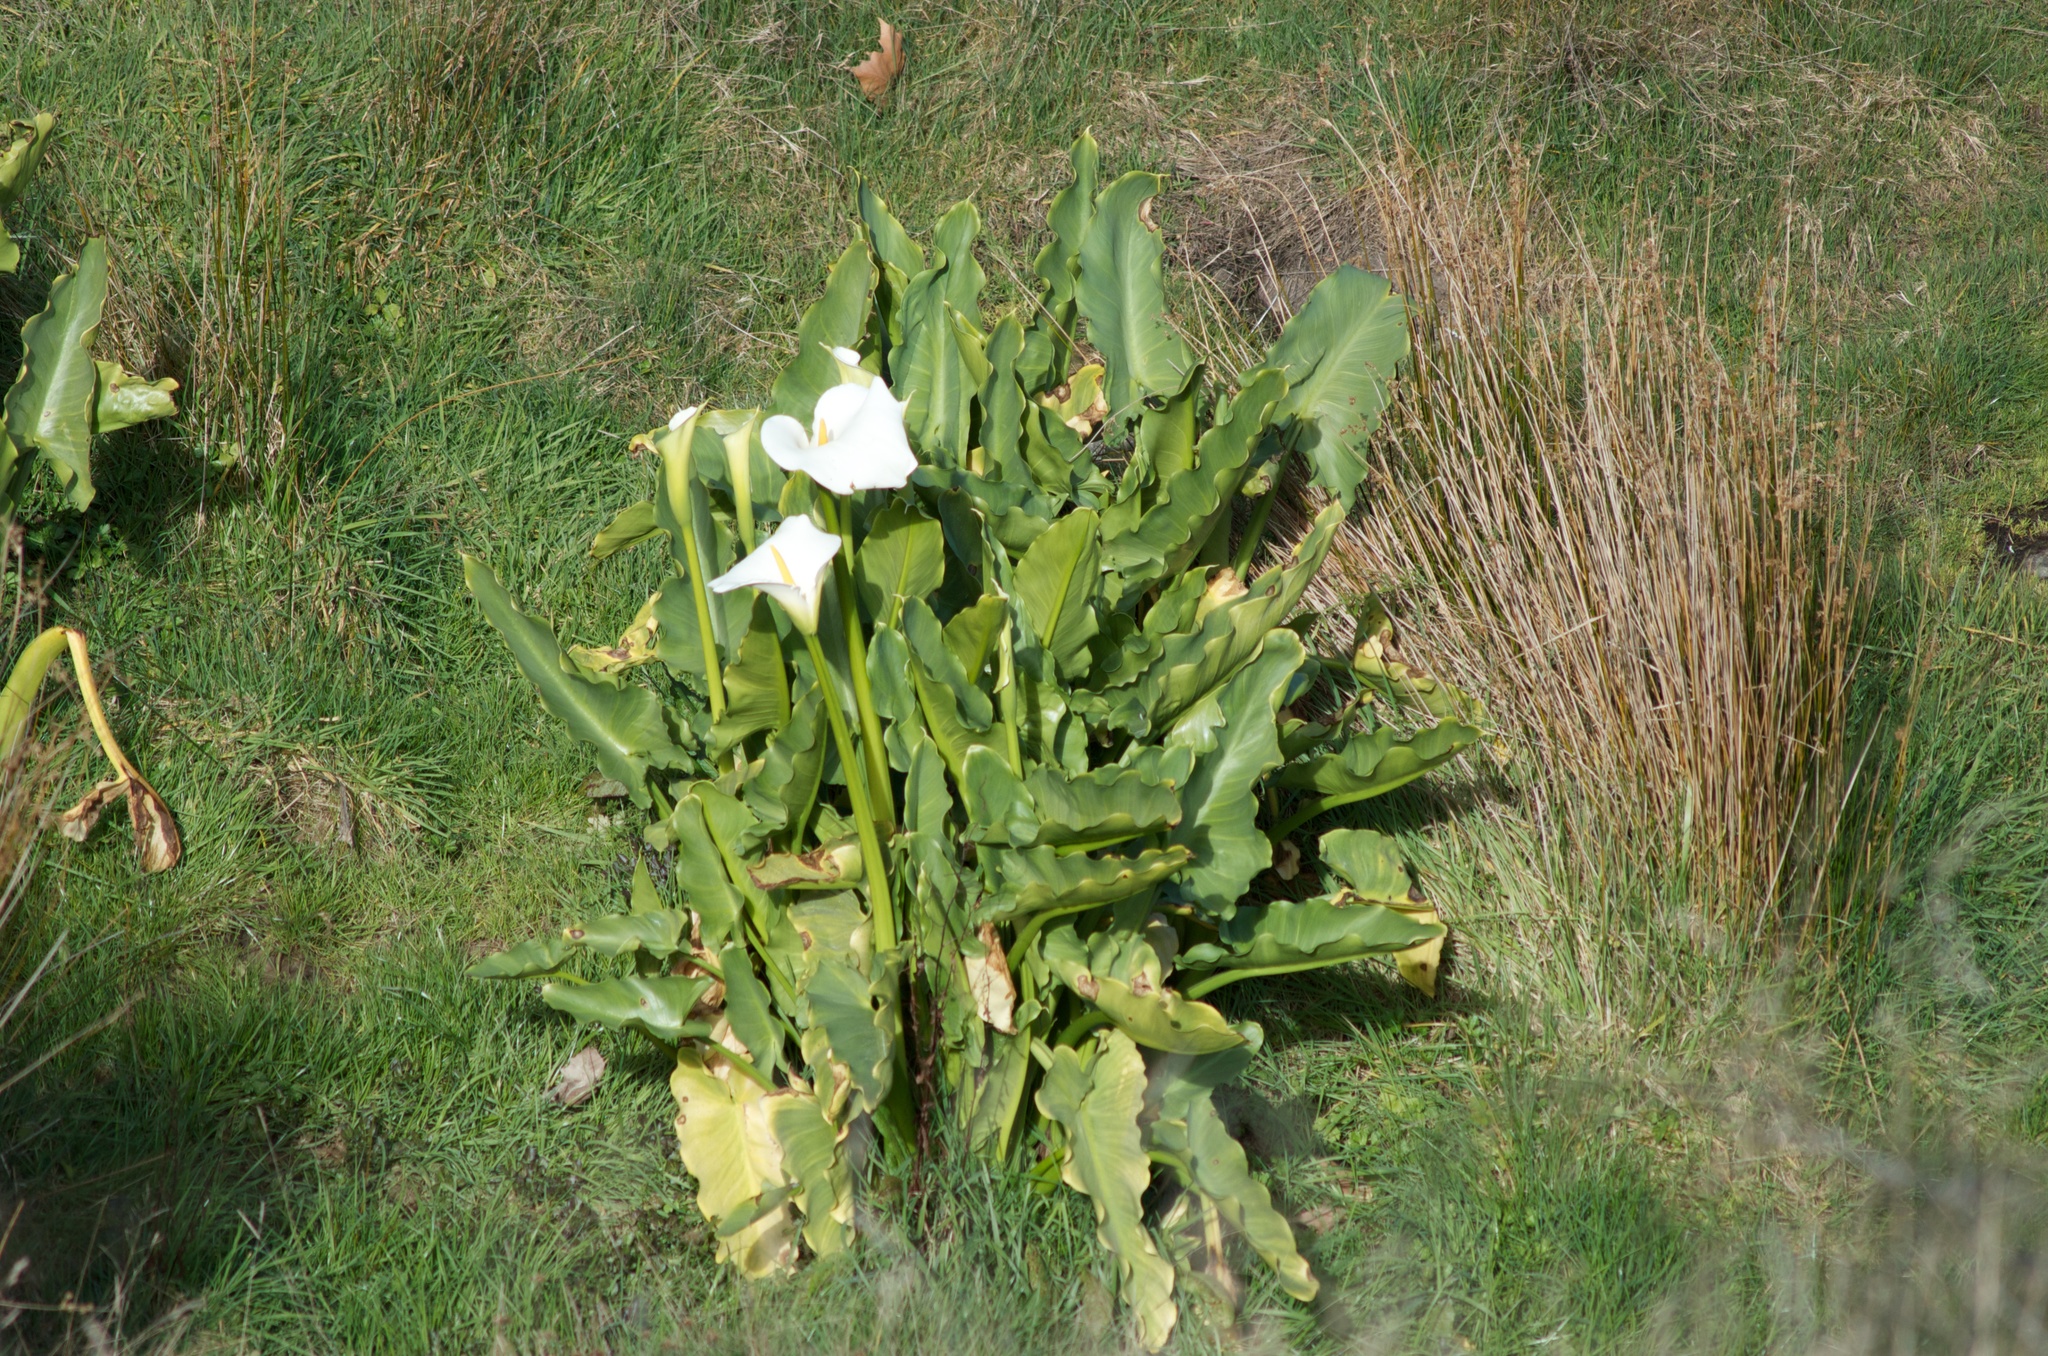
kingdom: Plantae
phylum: Tracheophyta
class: Liliopsida
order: Alismatales
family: Araceae
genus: Zantedeschia
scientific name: Zantedeschia aethiopica
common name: Altar-lily
